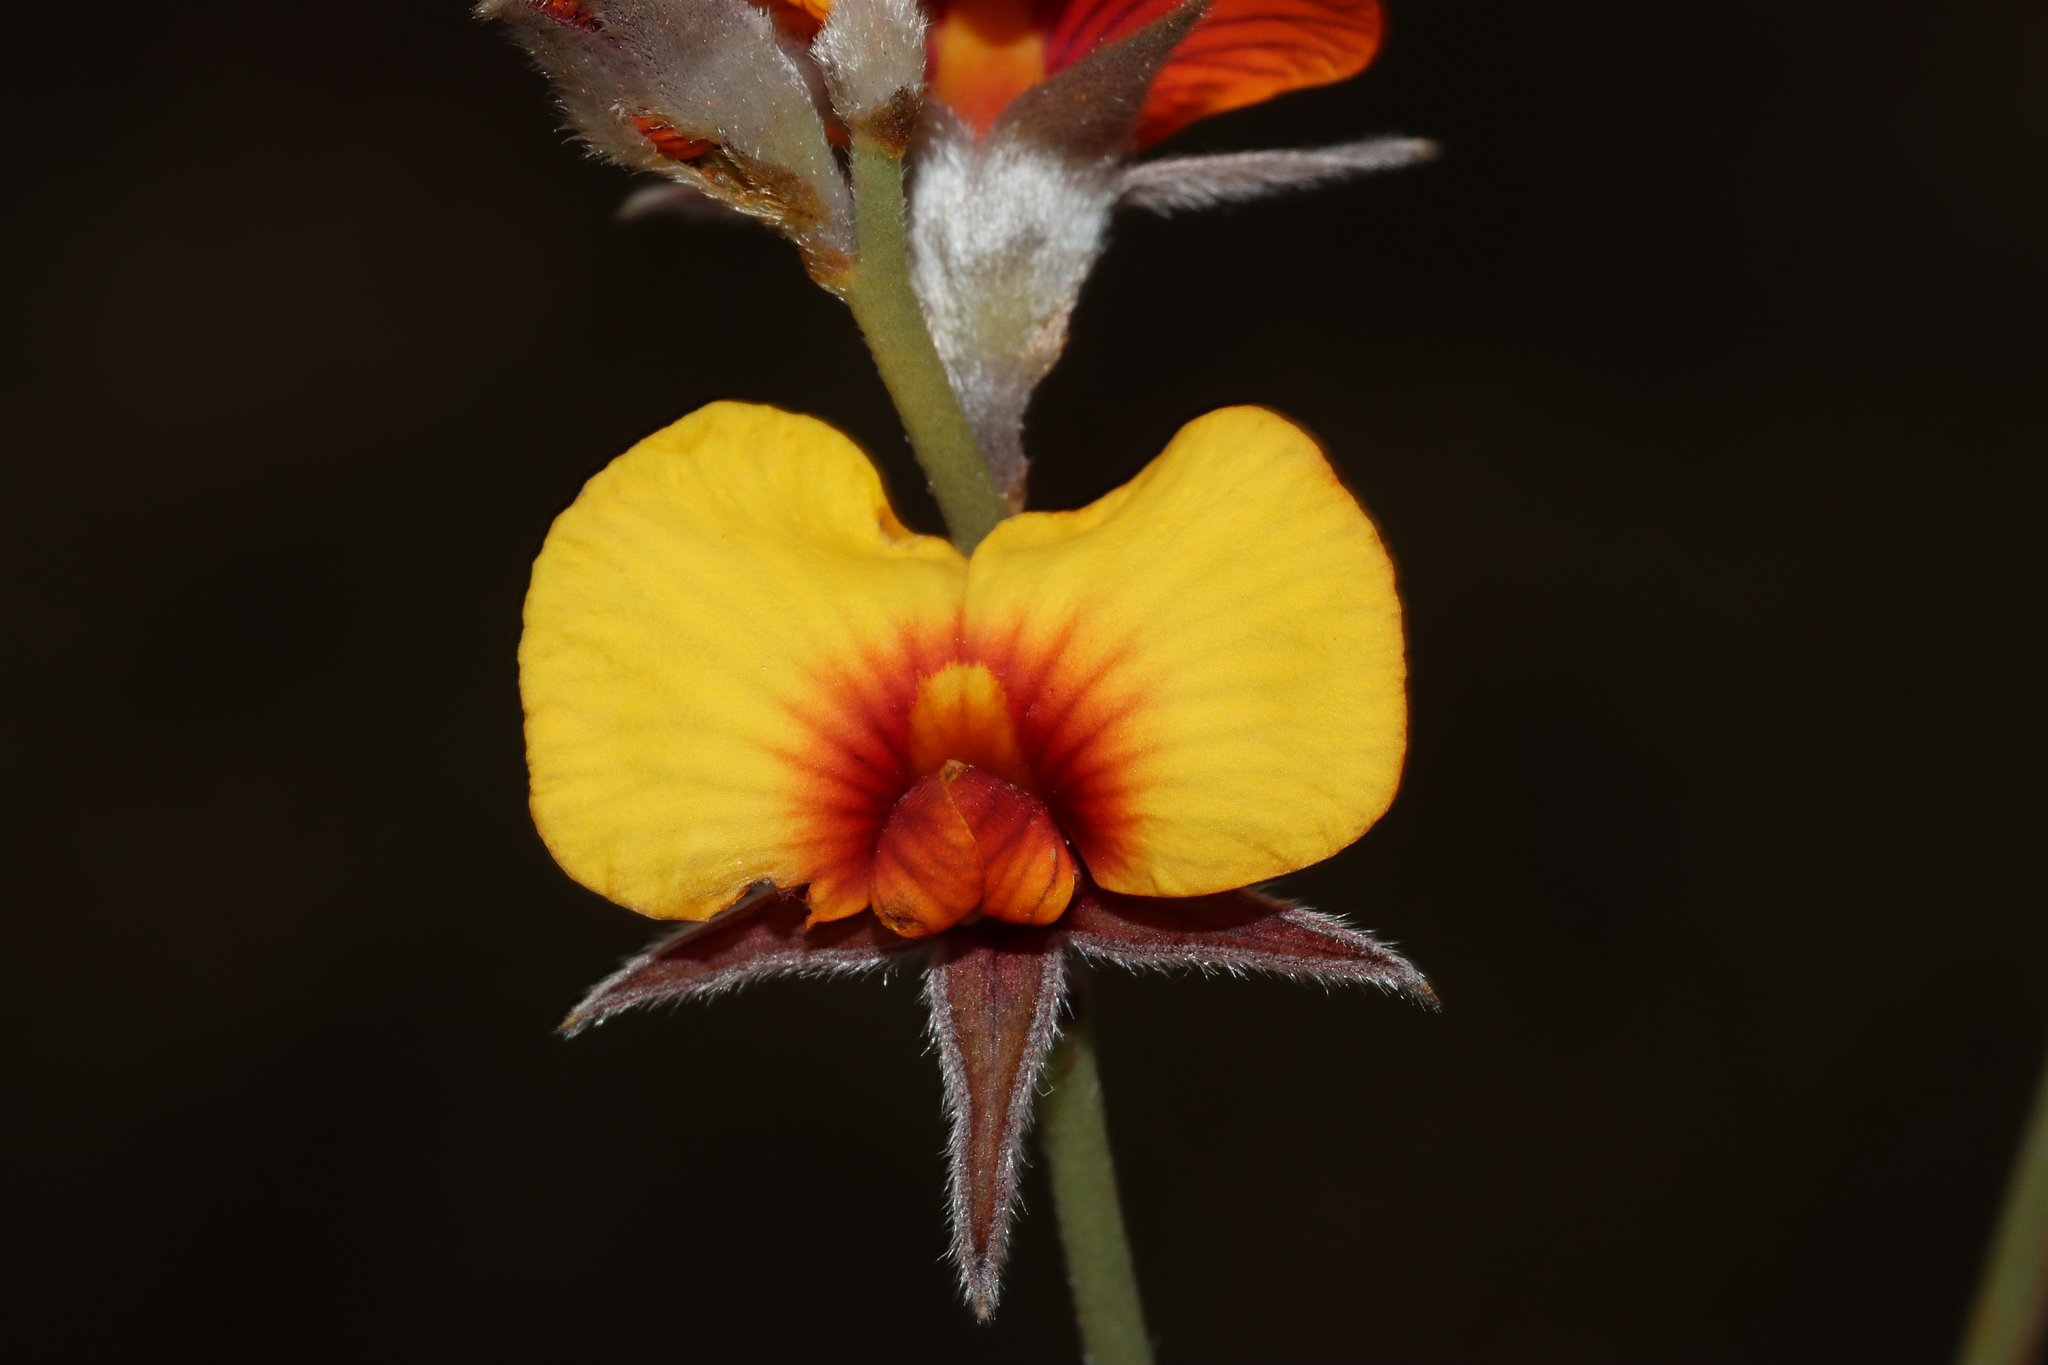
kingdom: Plantae
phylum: Tracheophyta
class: Magnoliopsida
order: Fabales
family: Fabaceae
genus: Jacksonia
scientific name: Jacksonia restioides
